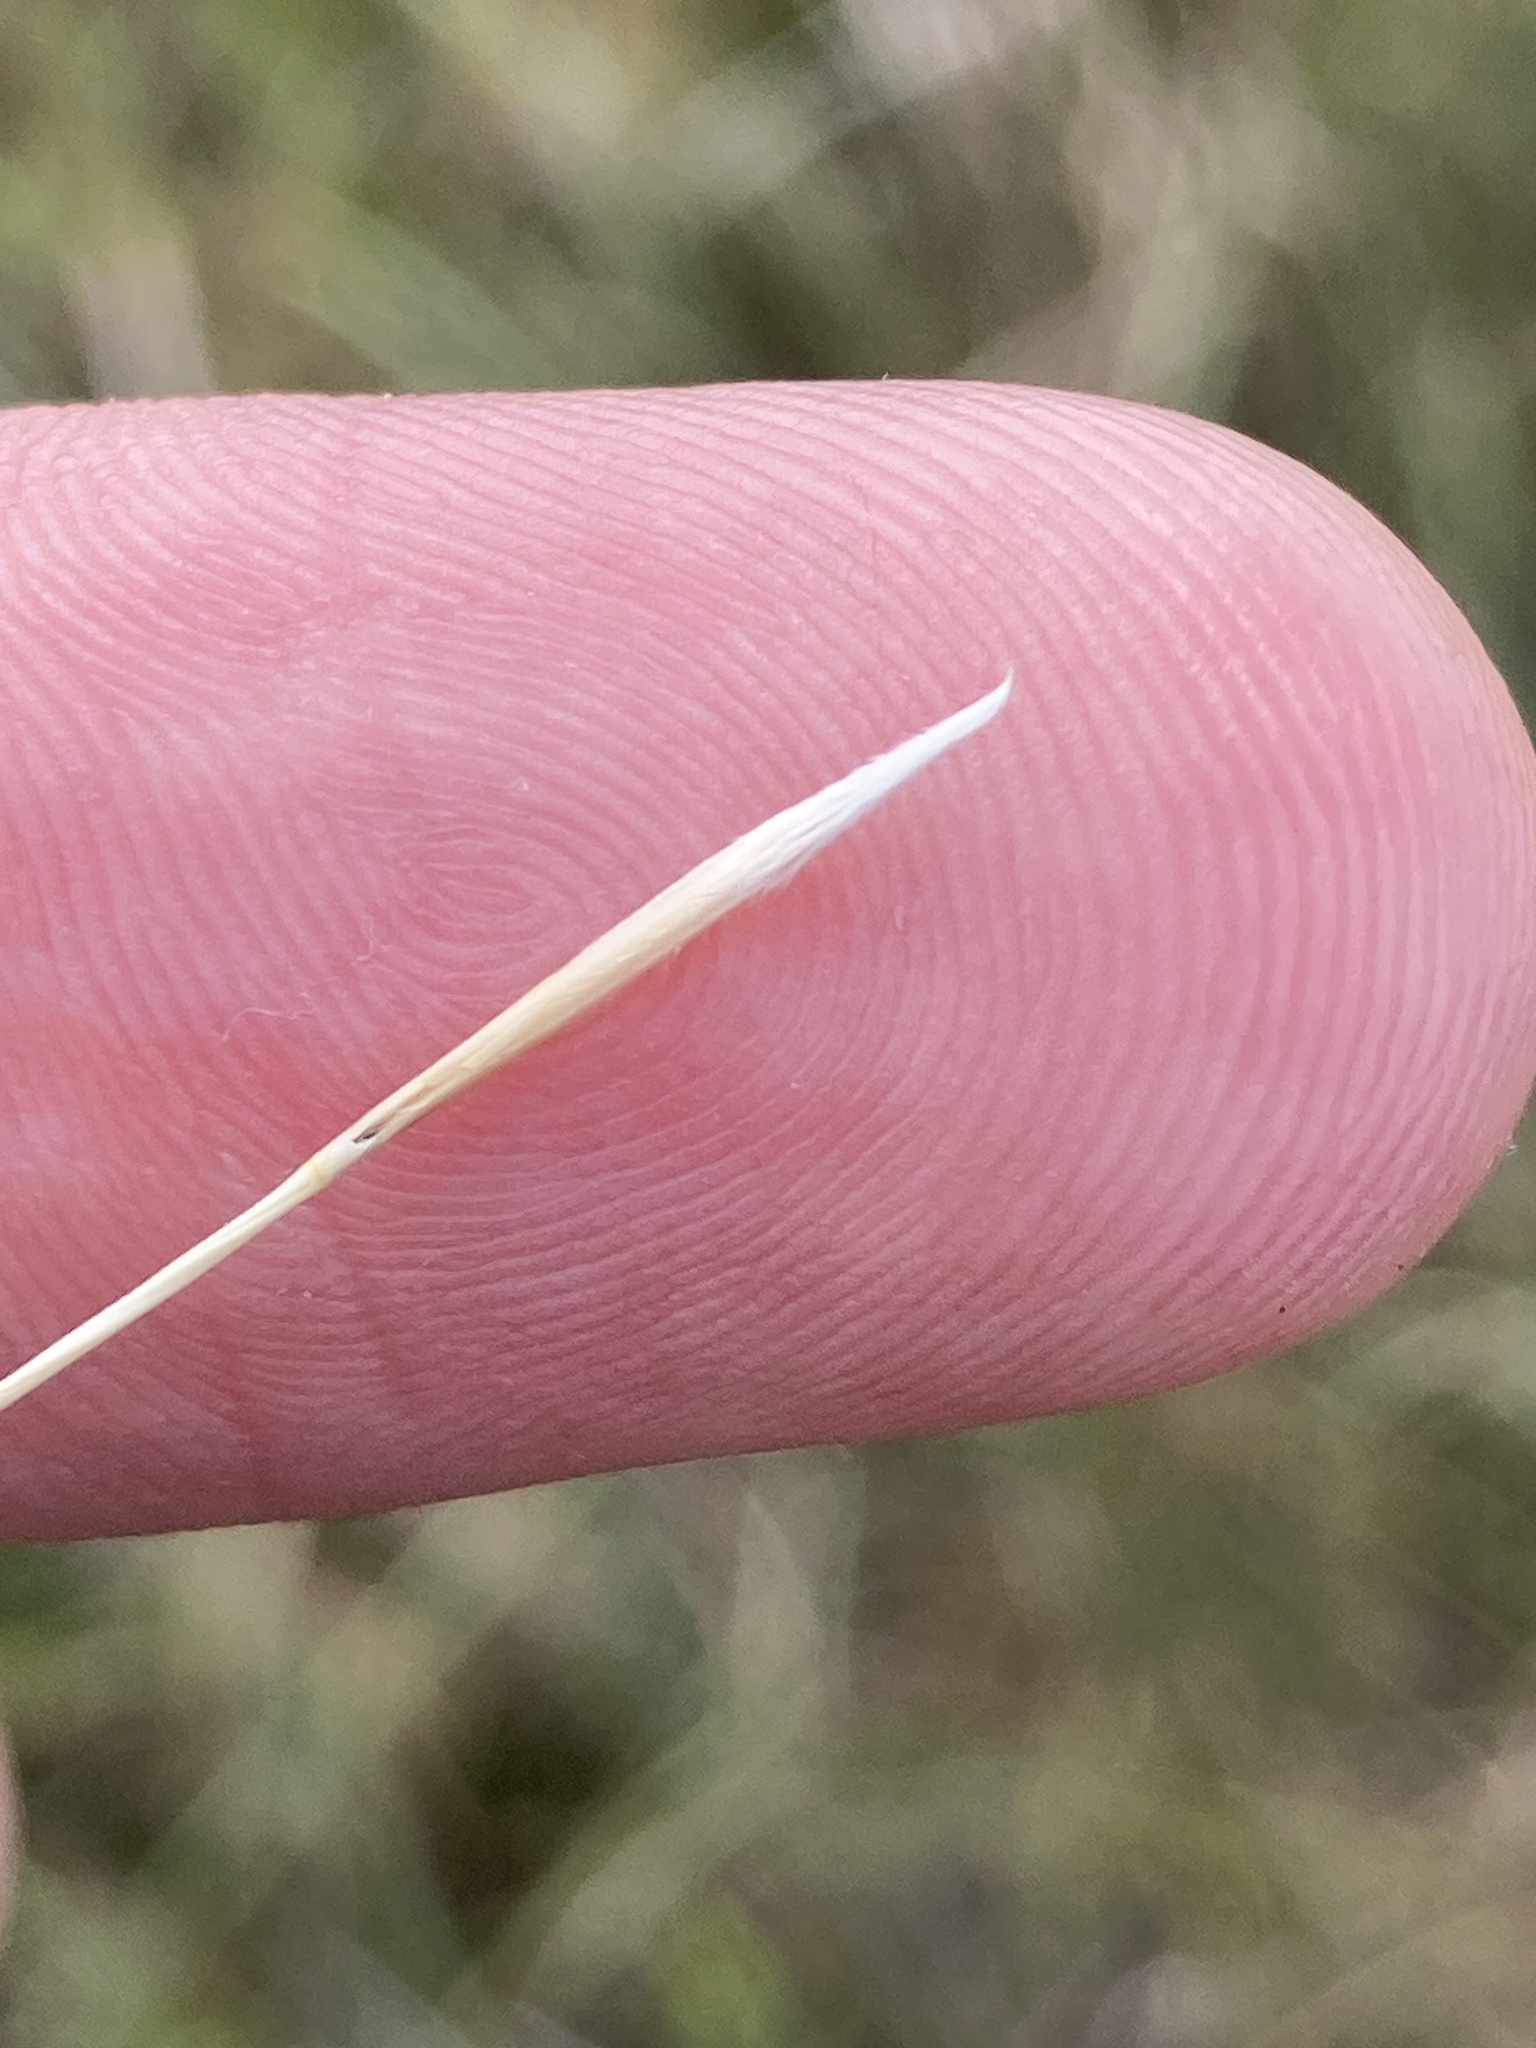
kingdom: Plantae
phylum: Tracheophyta
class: Liliopsida
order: Poales
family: Poaceae
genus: Stipa
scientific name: Stipa capillata
